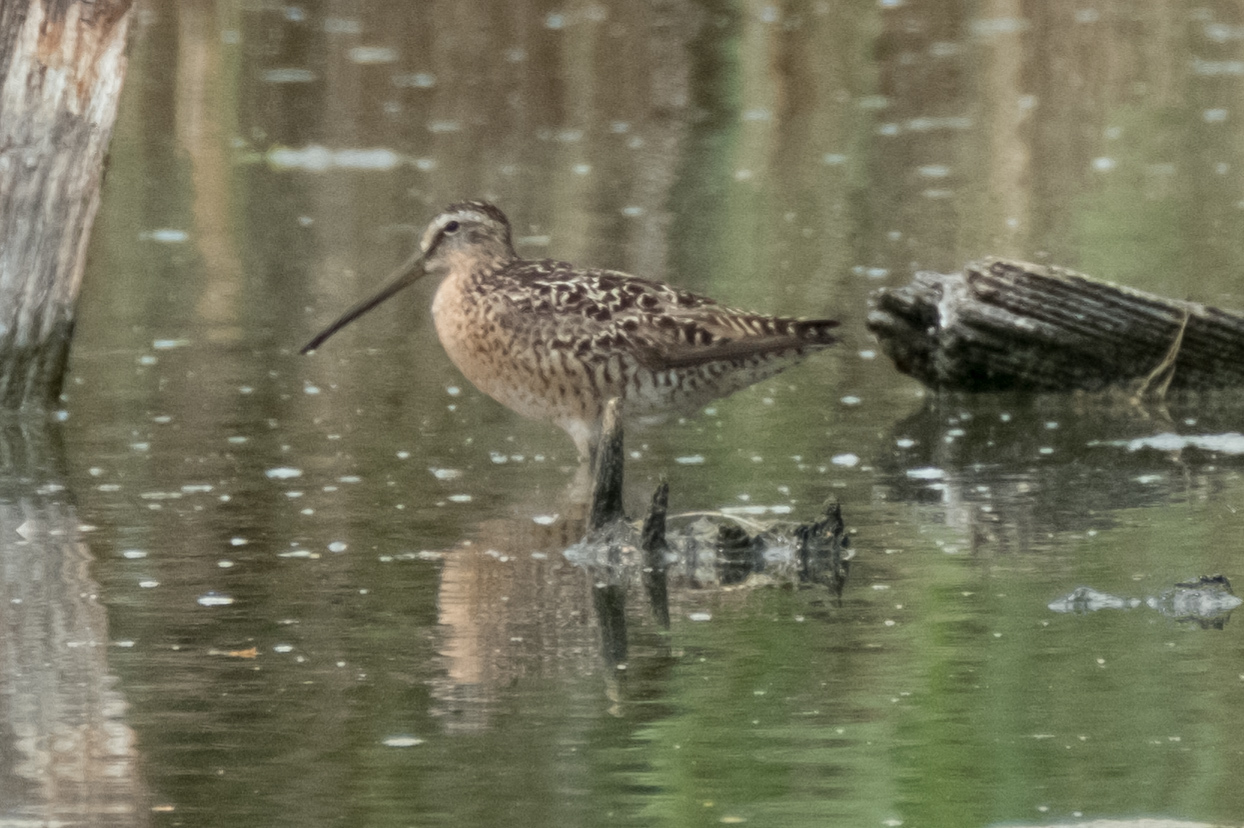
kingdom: Animalia
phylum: Chordata
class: Aves
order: Charadriiformes
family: Scolopacidae
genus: Limnodromus
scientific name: Limnodromus griseus
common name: Short-billed dowitcher
